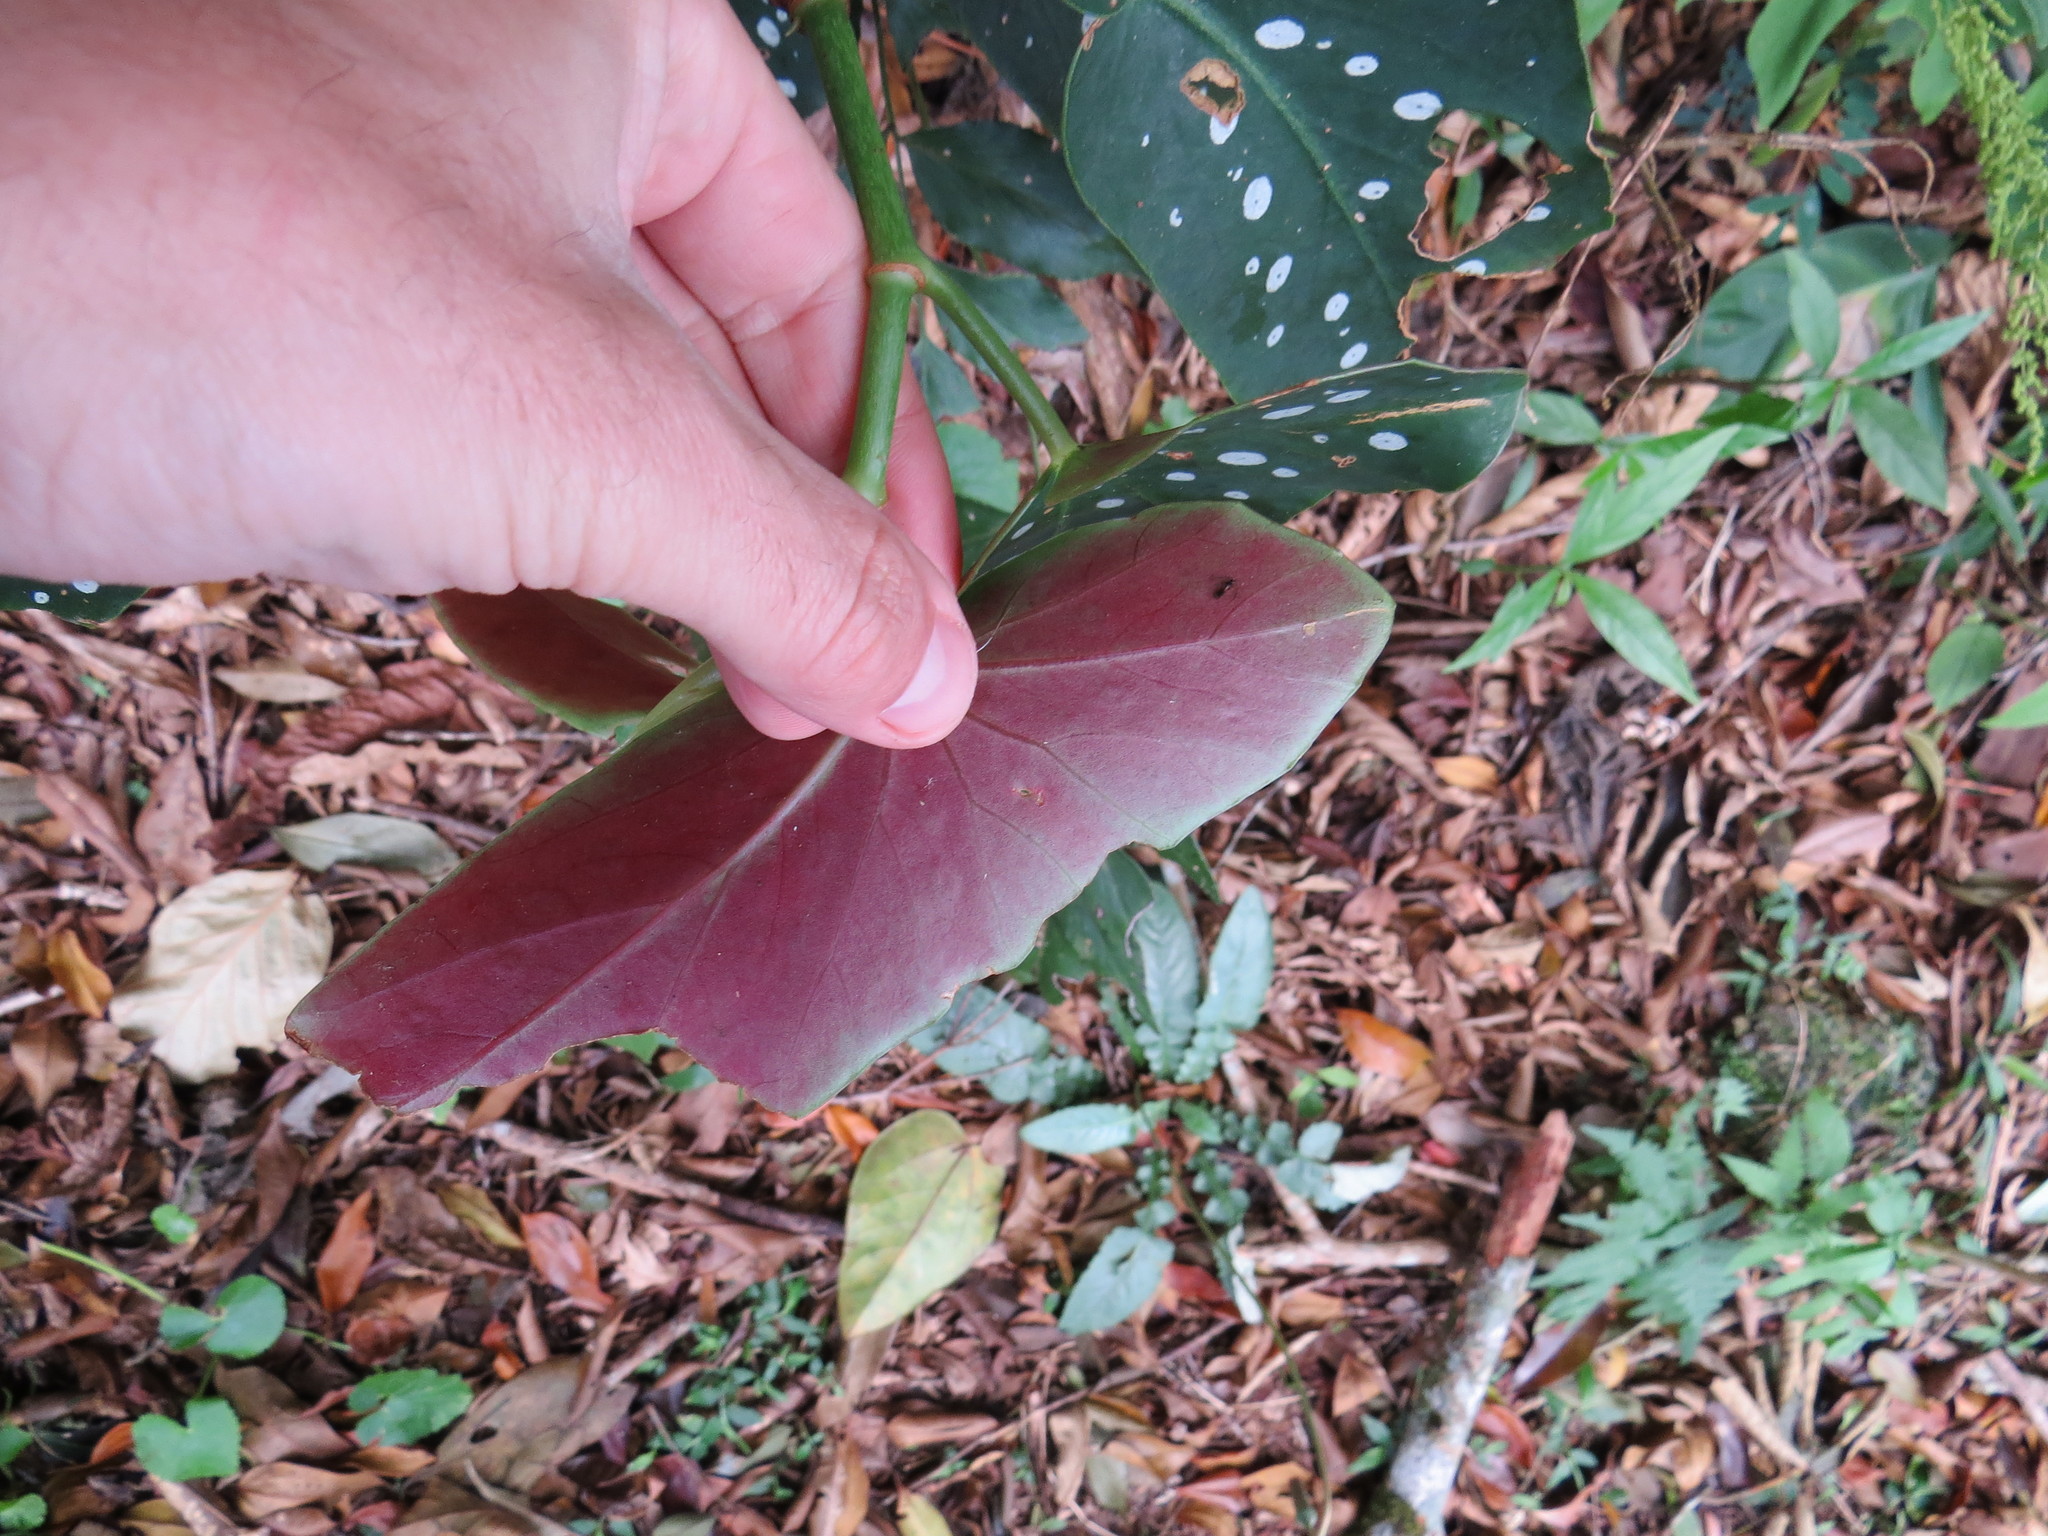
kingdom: Plantae
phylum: Tracheophyta
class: Magnoliopsida
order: Cucurbitales
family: Begoniaceae
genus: Begonia
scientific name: Begonia maculata
